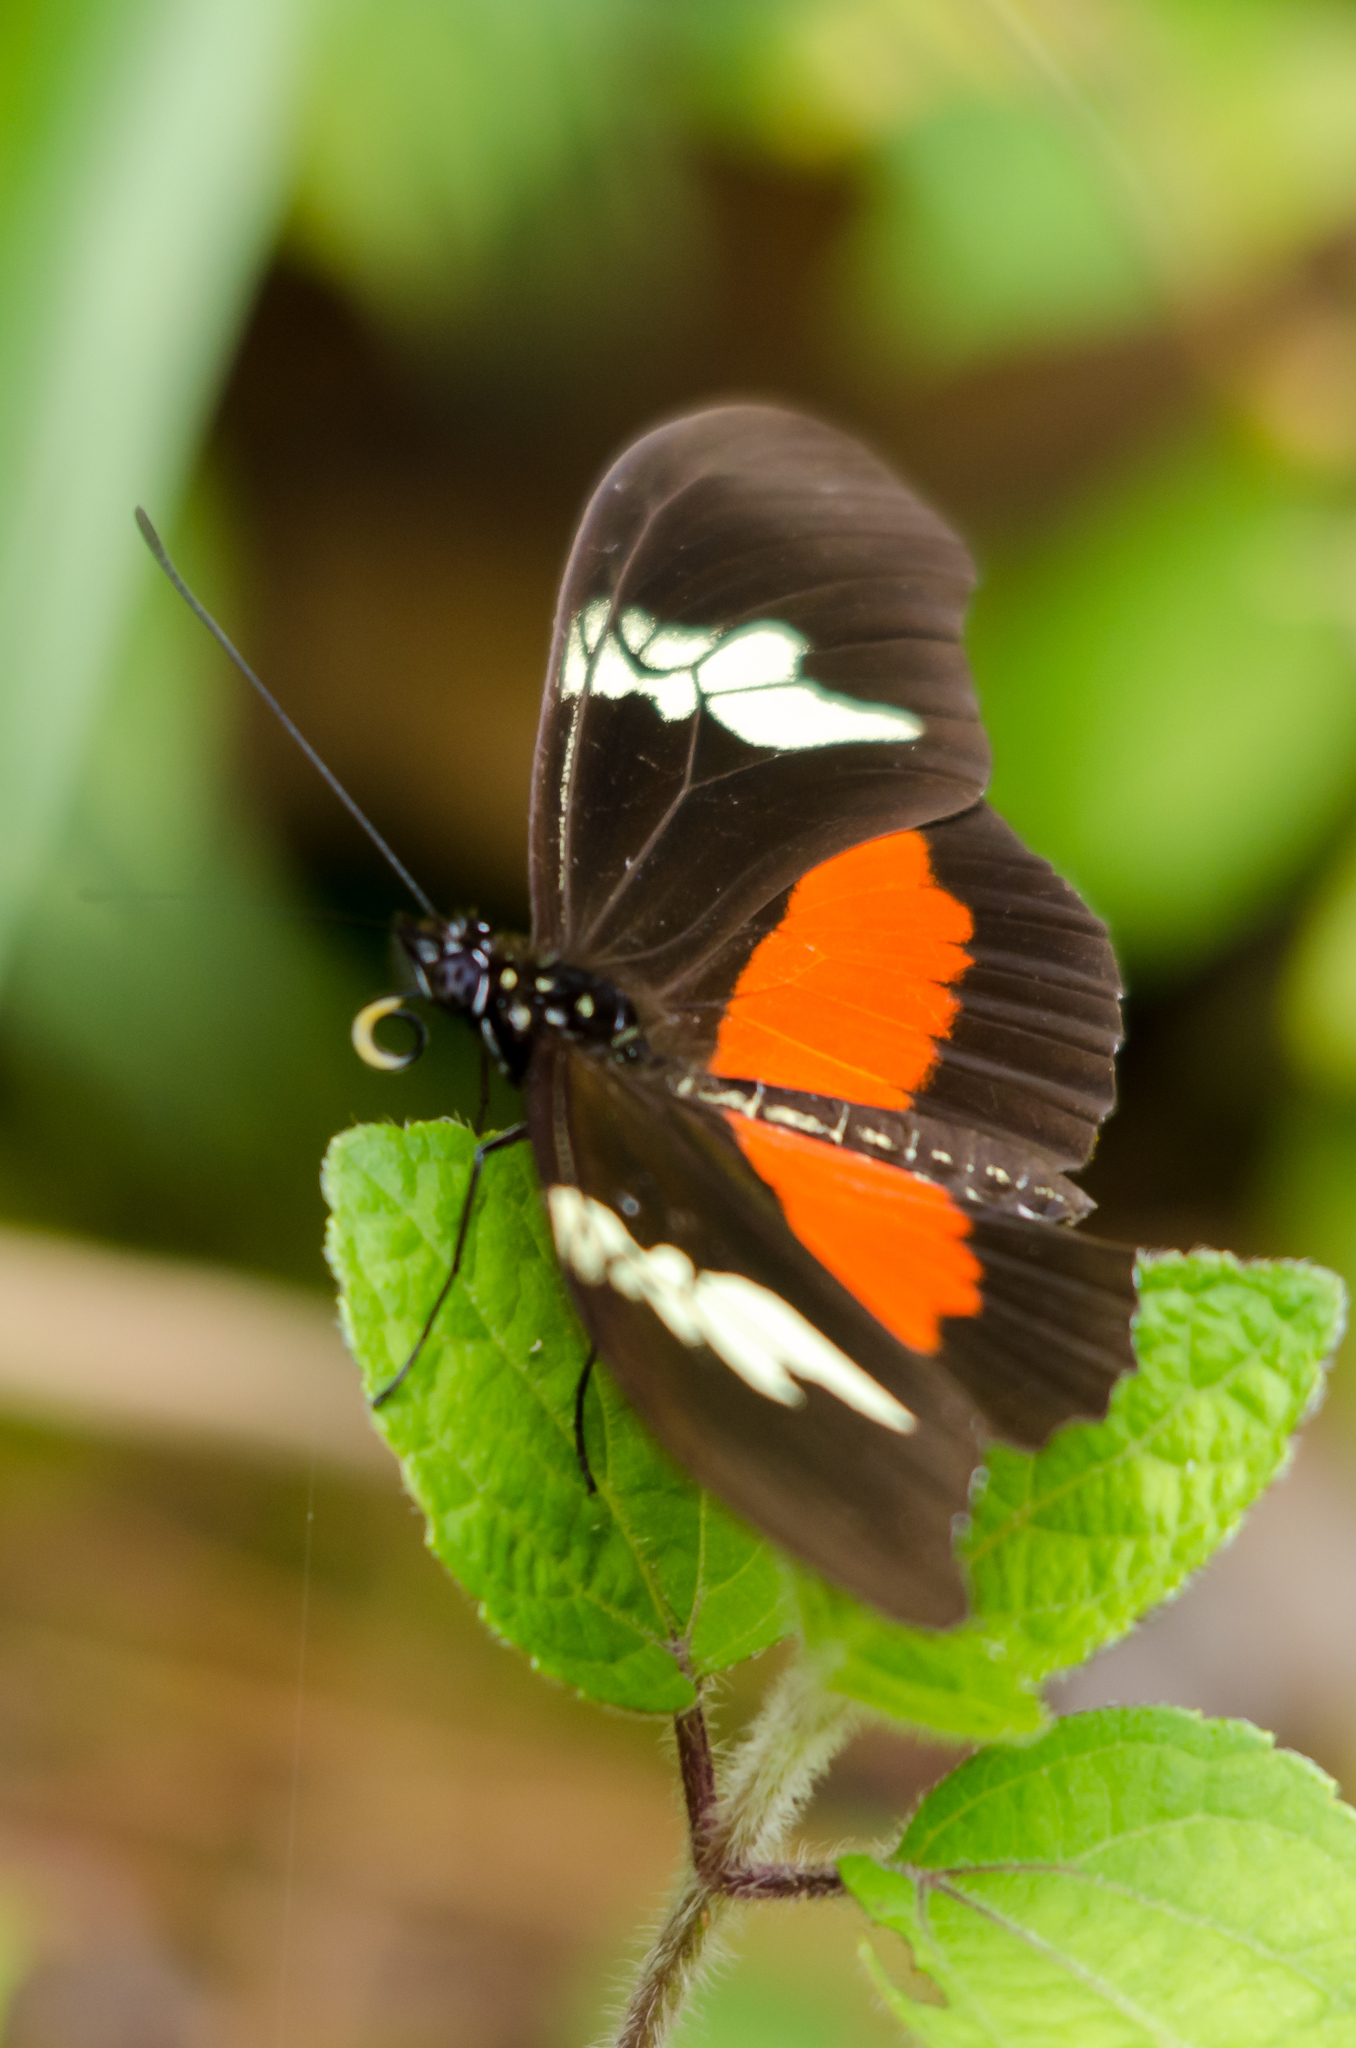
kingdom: Animalia
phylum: Arthropoda
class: Insecta
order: Lepidoptera
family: Nymphalidae
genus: Heliconius
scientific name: Heliconius hortense
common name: Mexican longwing
